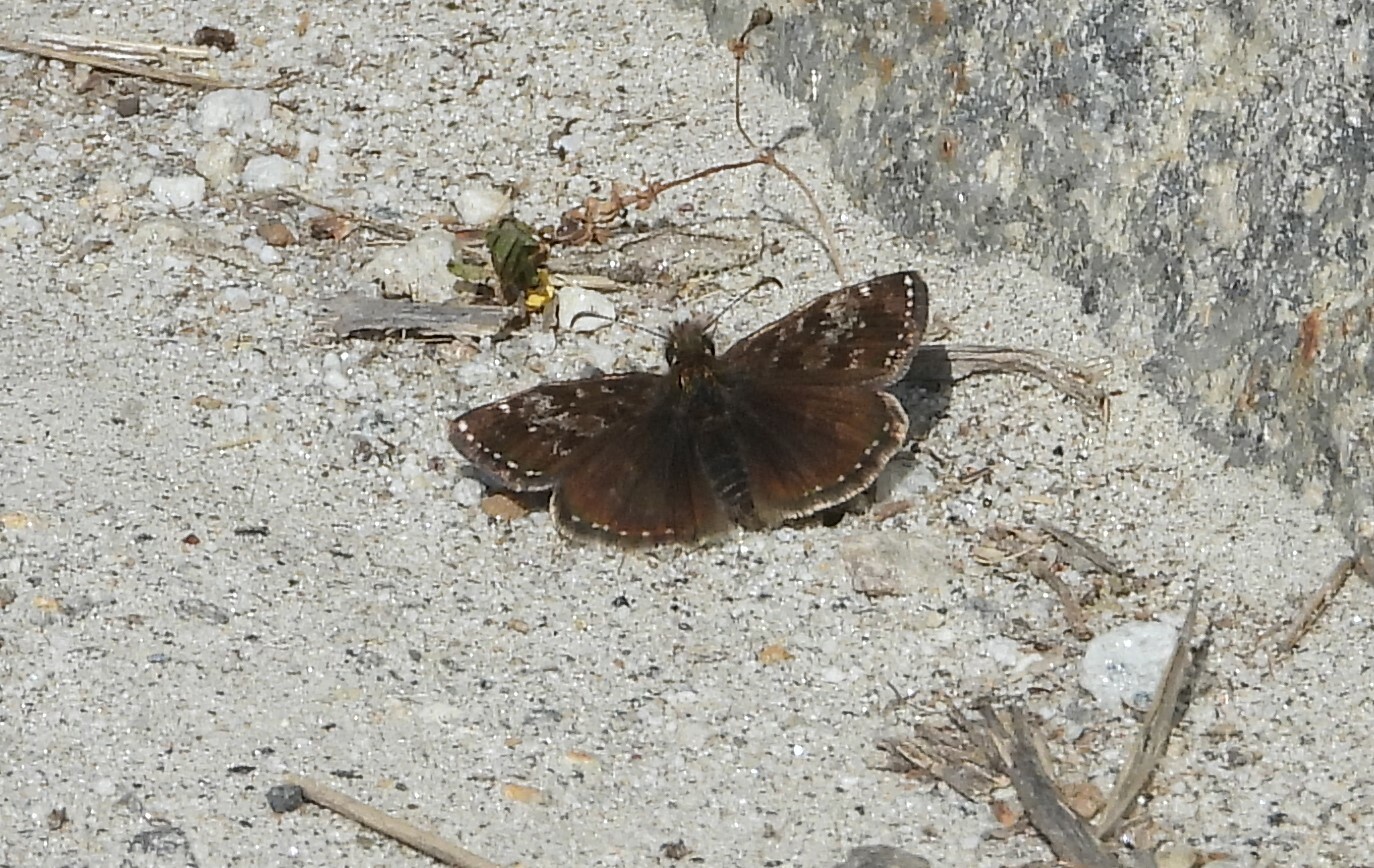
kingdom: Animalia
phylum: Arthropoda
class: Insecta
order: Lepidoptera
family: Hesperiidae
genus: Erynnis
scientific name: Erynnis tages
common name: Dingy skipper
